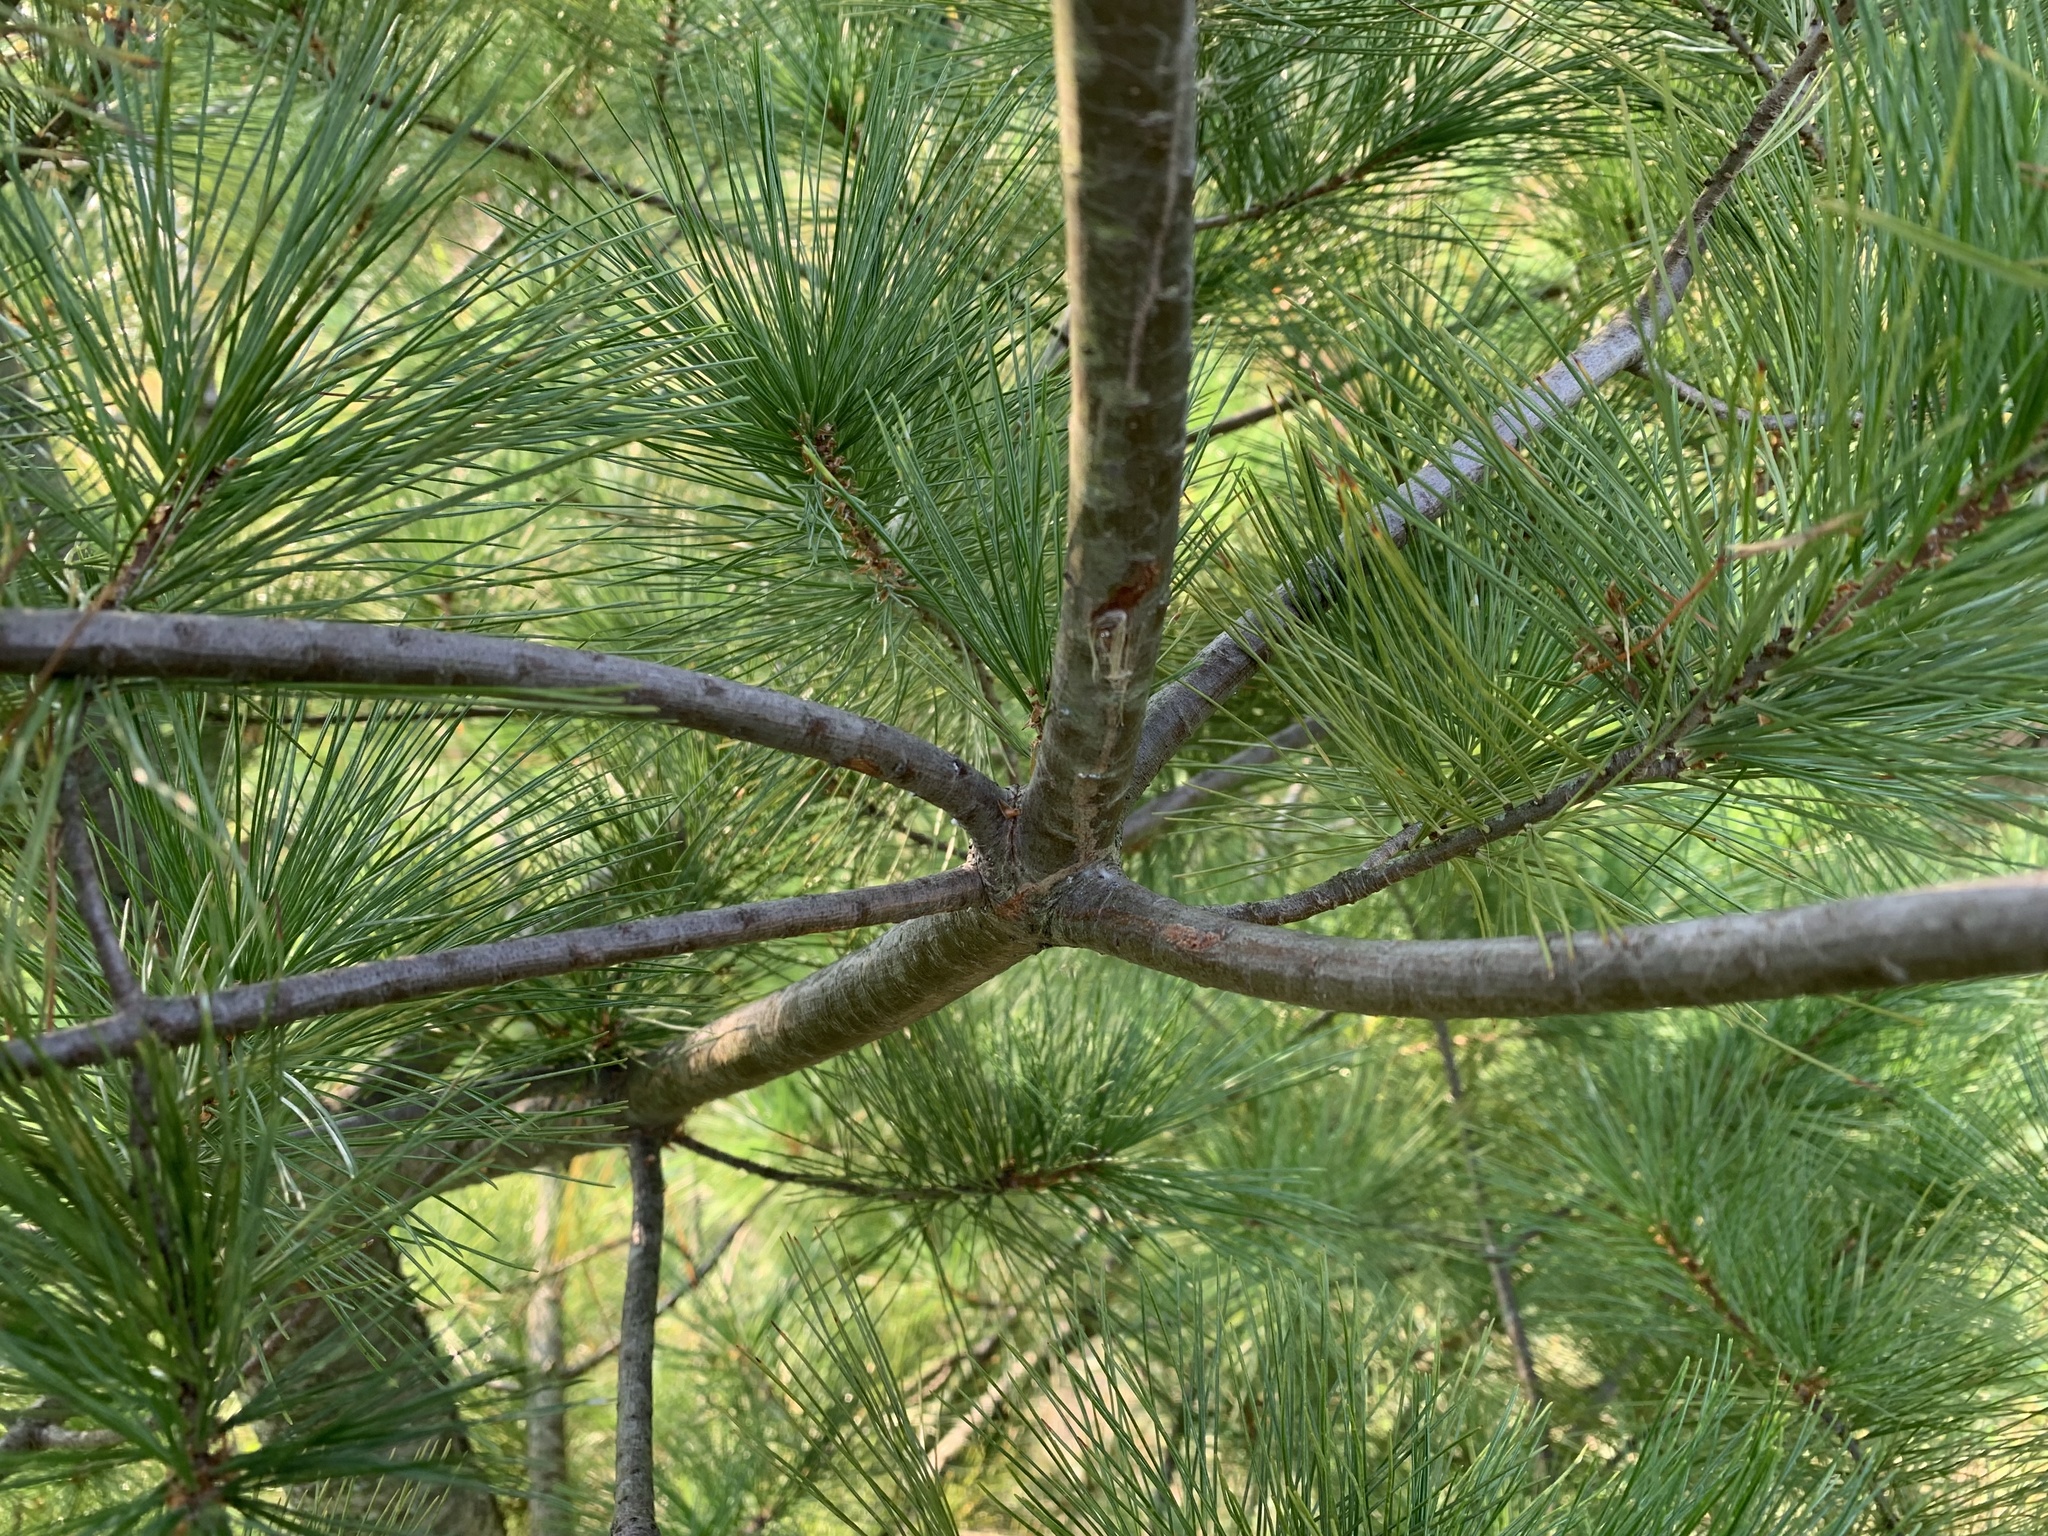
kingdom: Animalia
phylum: Arthropoda
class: Insecta
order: Lepidoptera
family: Gracillariidae
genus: Marmara
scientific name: Marmara fasciella
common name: White pine barkminer moth
